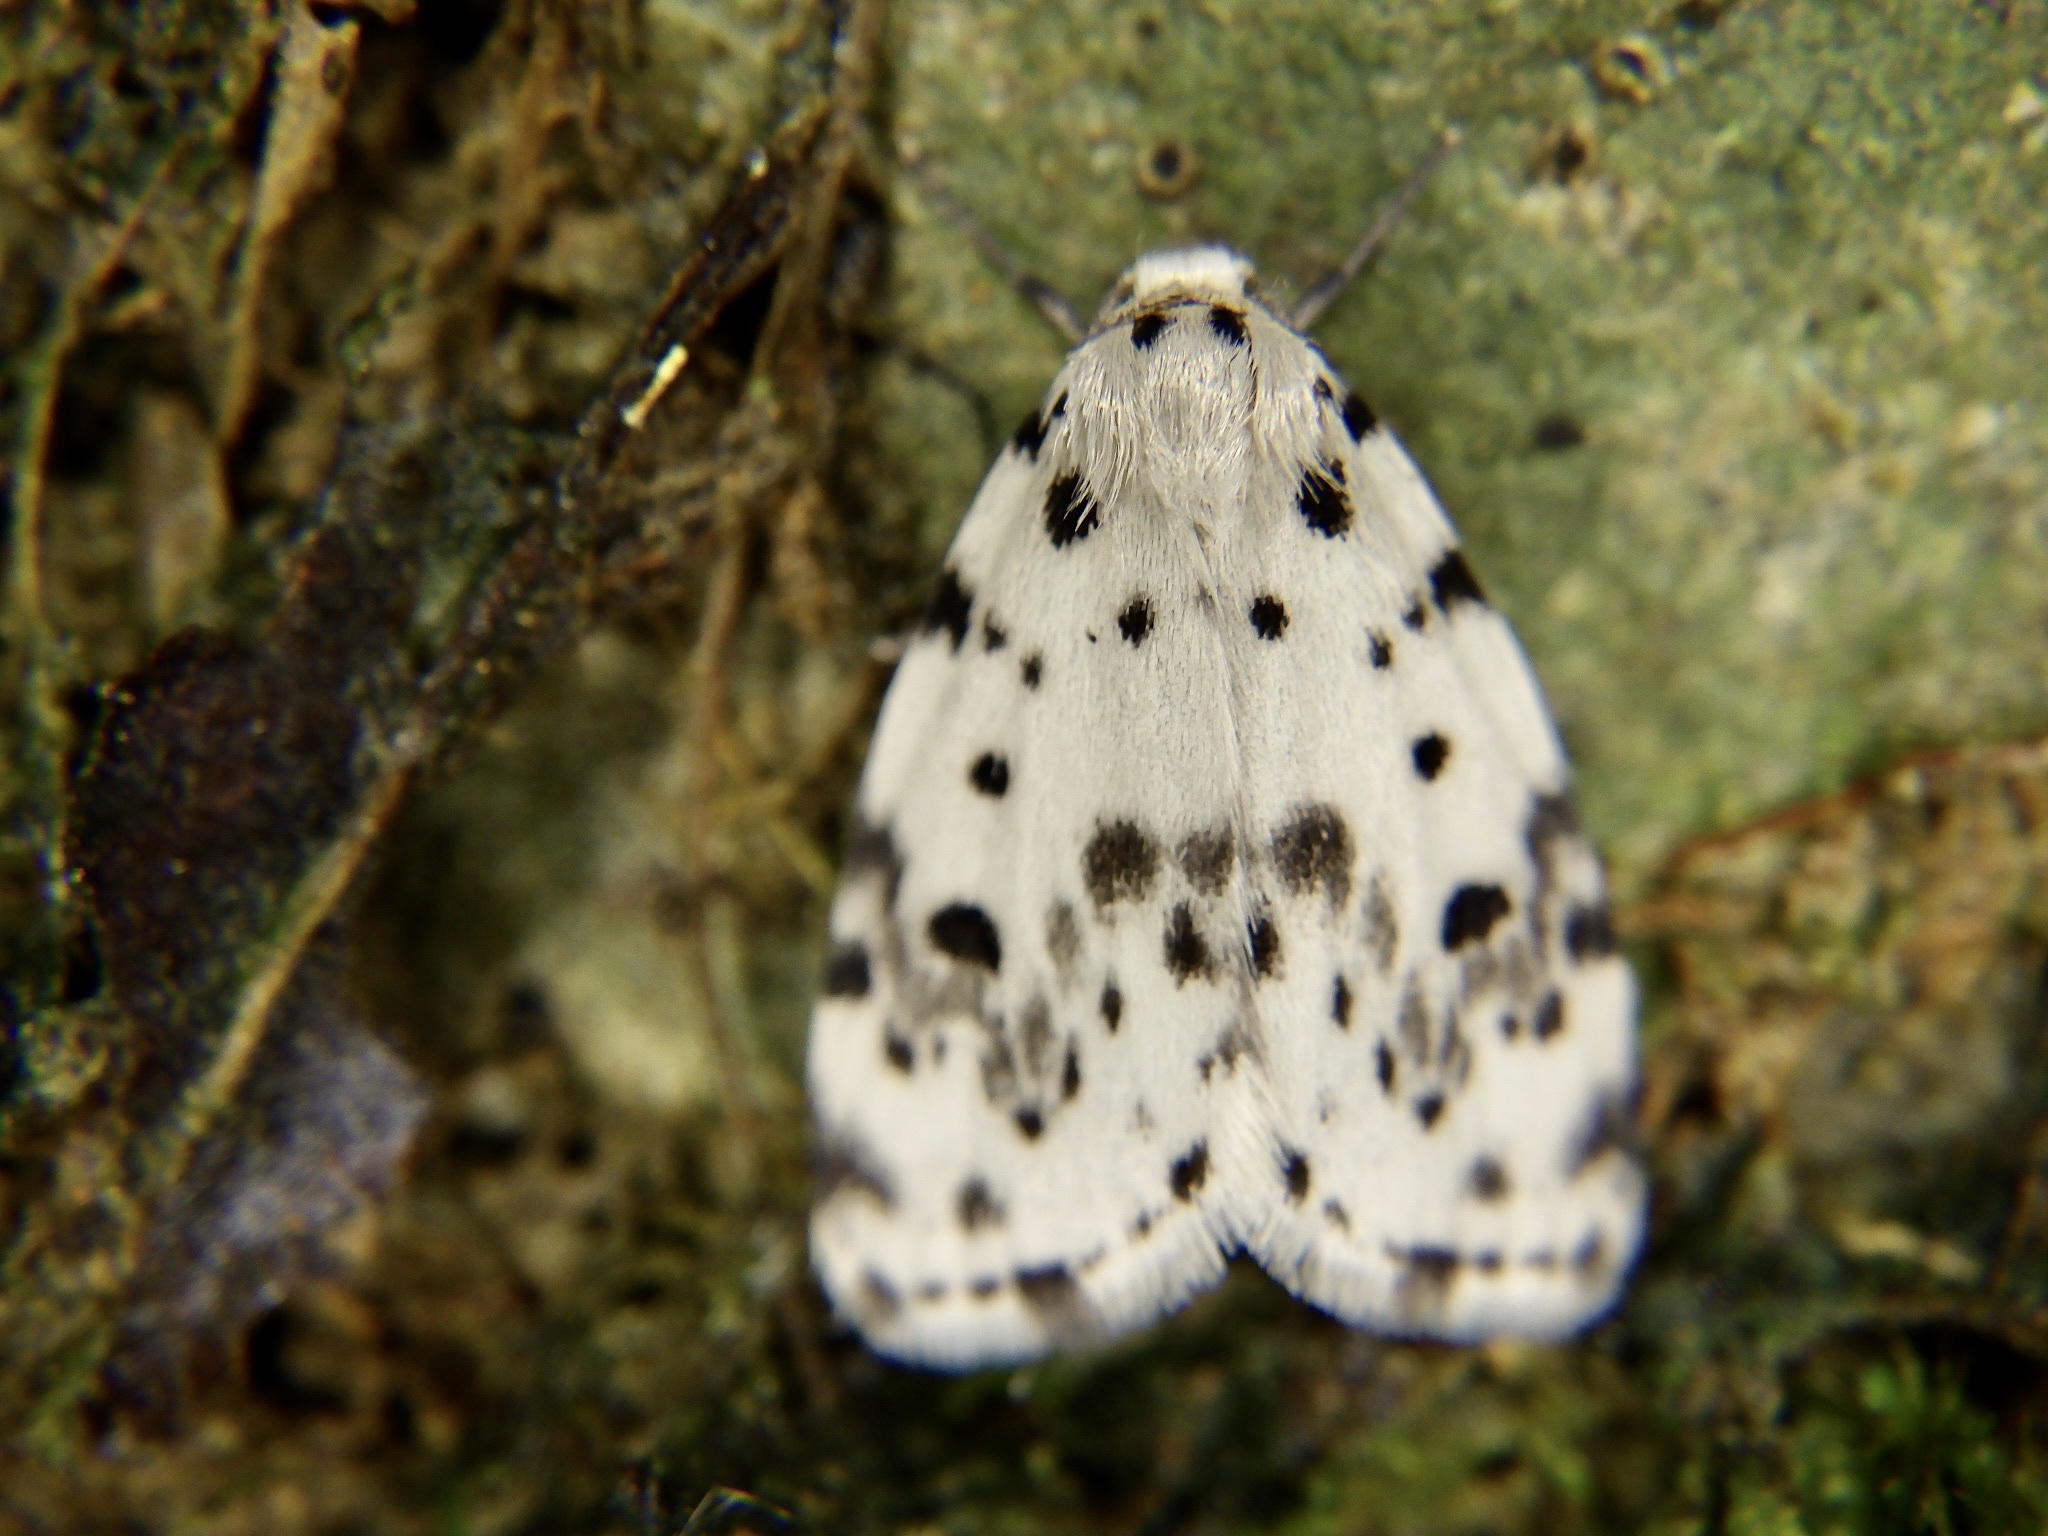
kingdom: Animalia
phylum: Arthropoda
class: Insecta
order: Lepidoptera
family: Erebidae
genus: Siccia
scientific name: Siccia altaica
